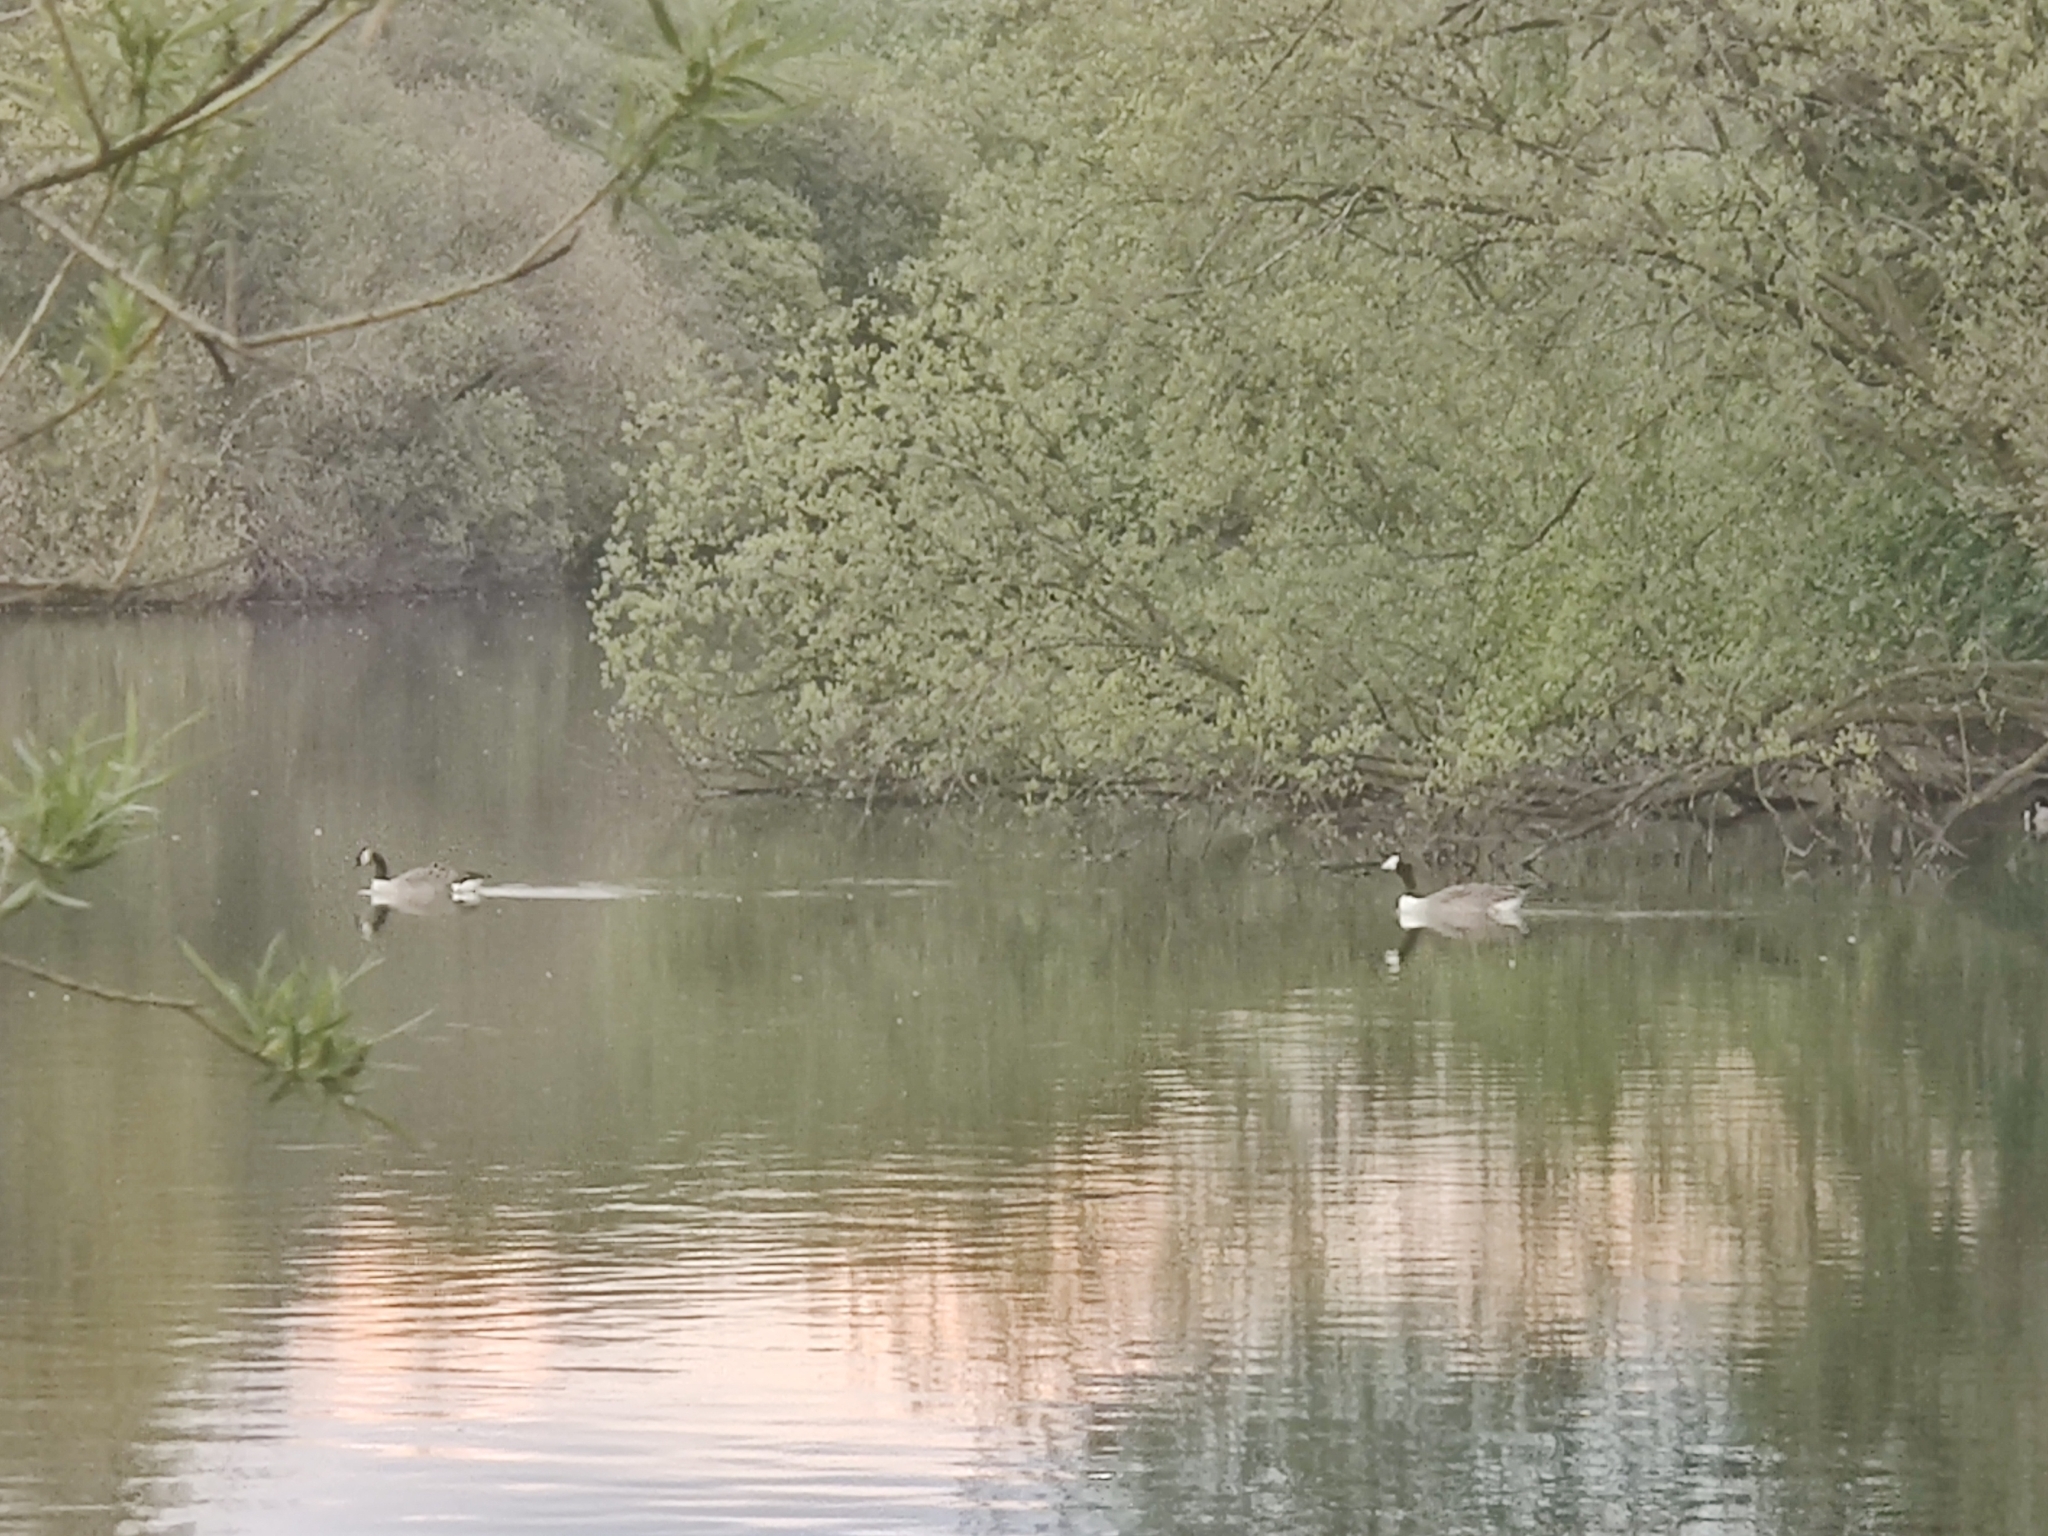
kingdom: Animalia
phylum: Chordata
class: Aves
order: Anseriformes
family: Anatidae
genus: Branta
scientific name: Branta canadensis
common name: Canada goose
